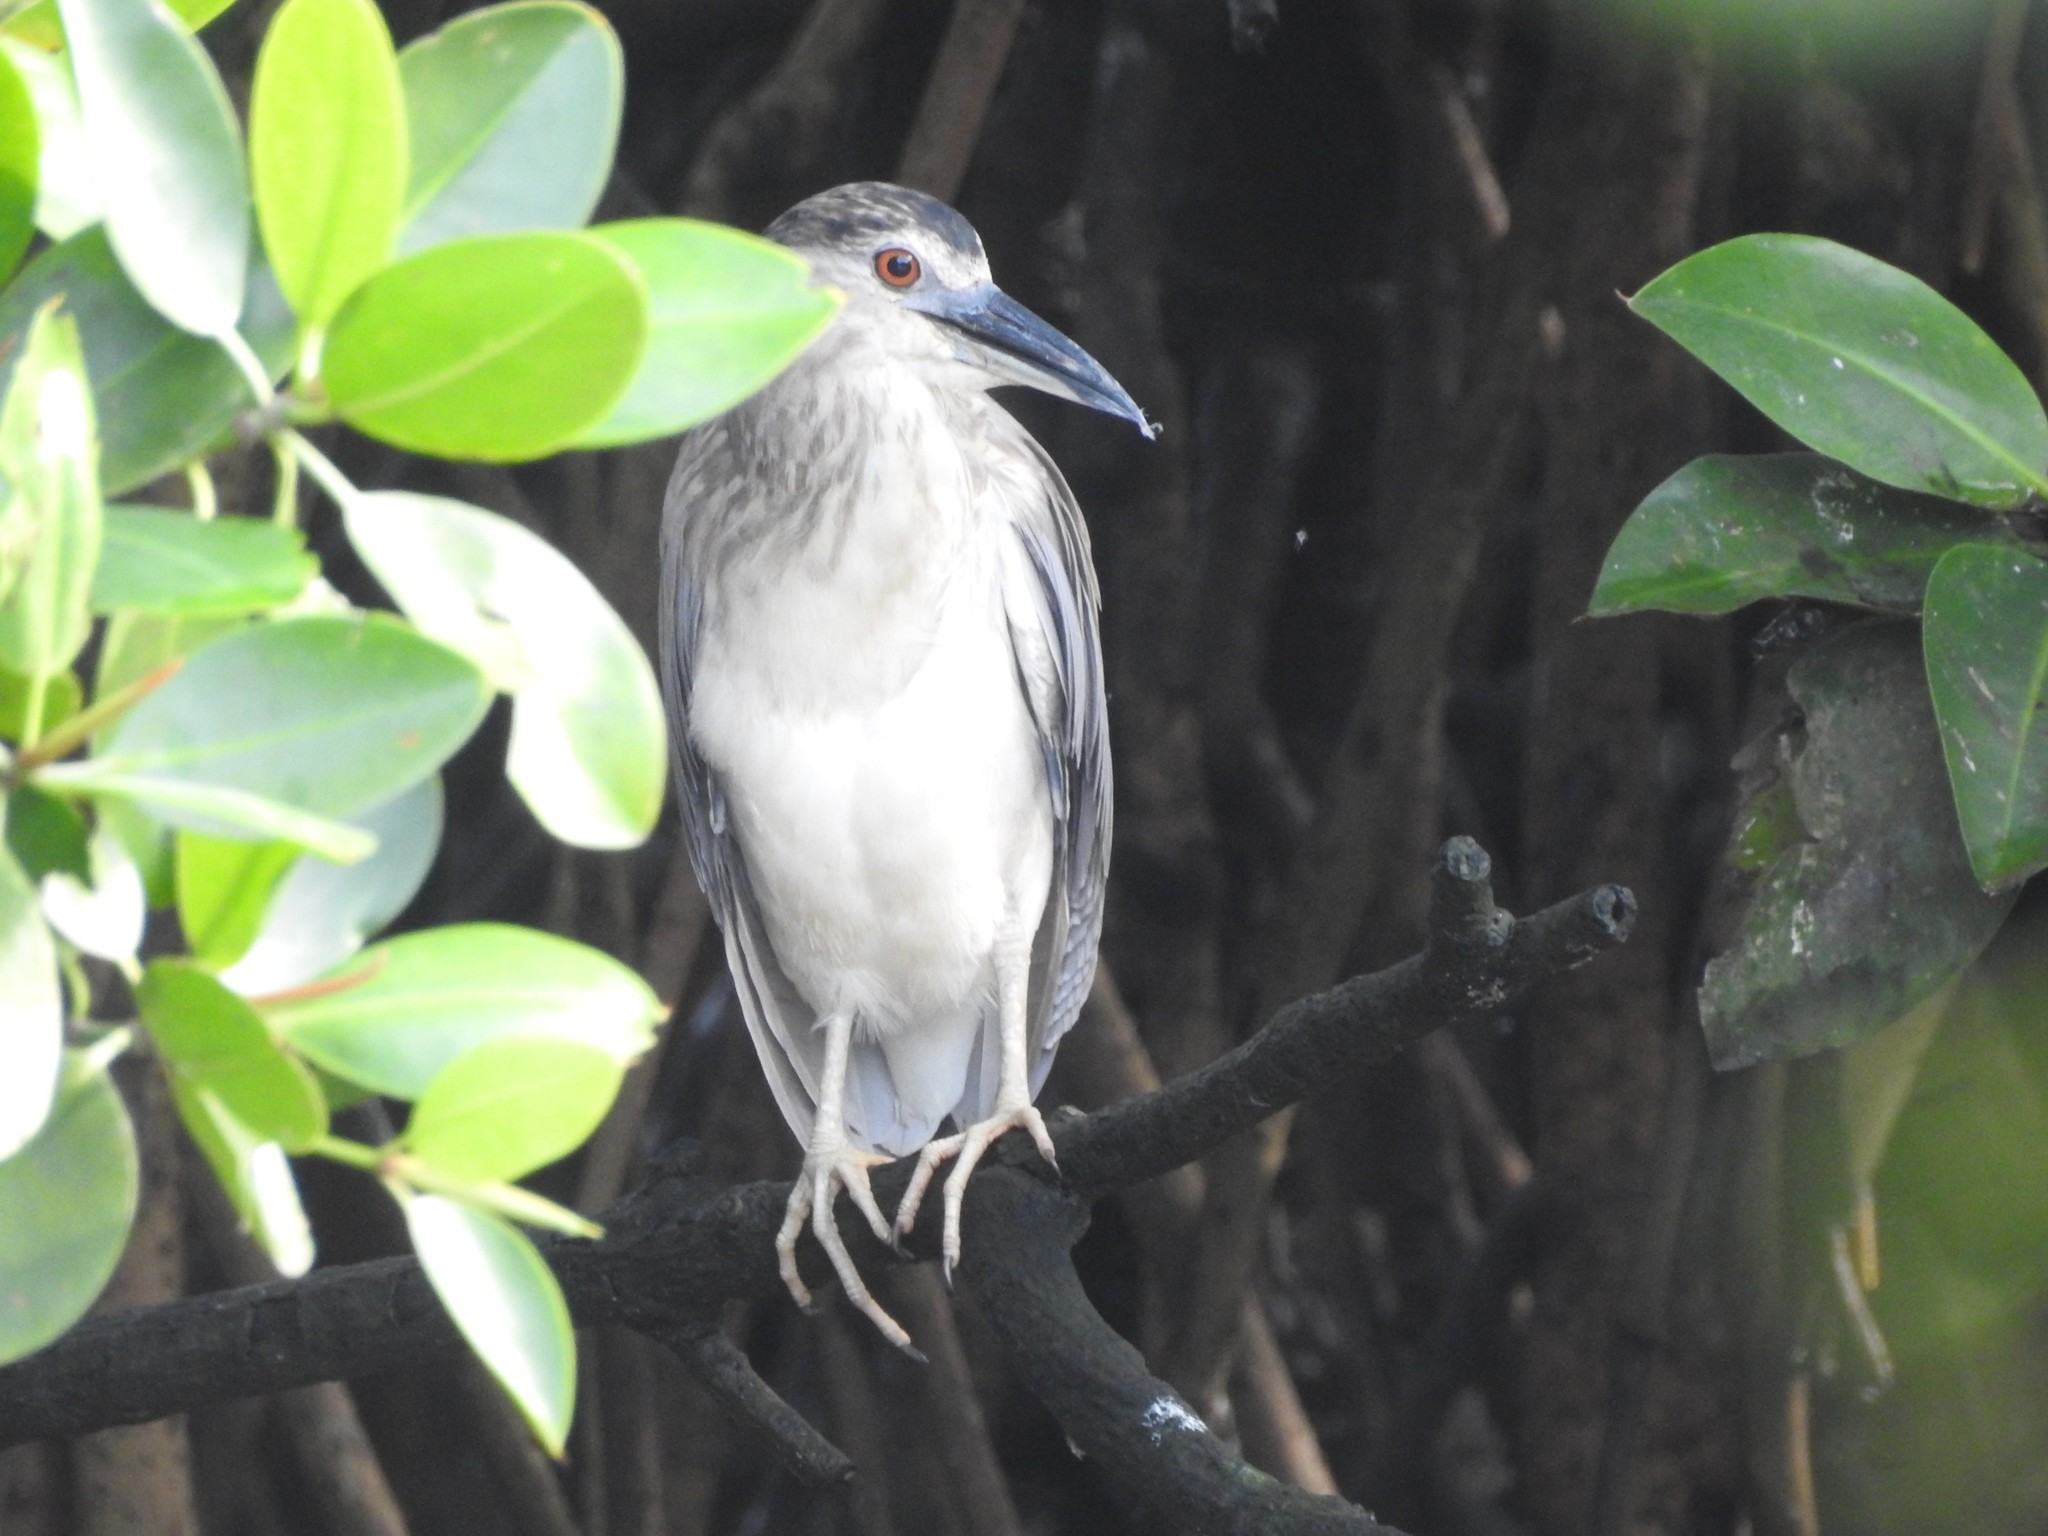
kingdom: Animalia
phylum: Chordata
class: Aves
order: Pelecaniformes
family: Ardeidae
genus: Nycticorax
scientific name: Nycticorax nycticorax
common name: Black-crowned night heron
